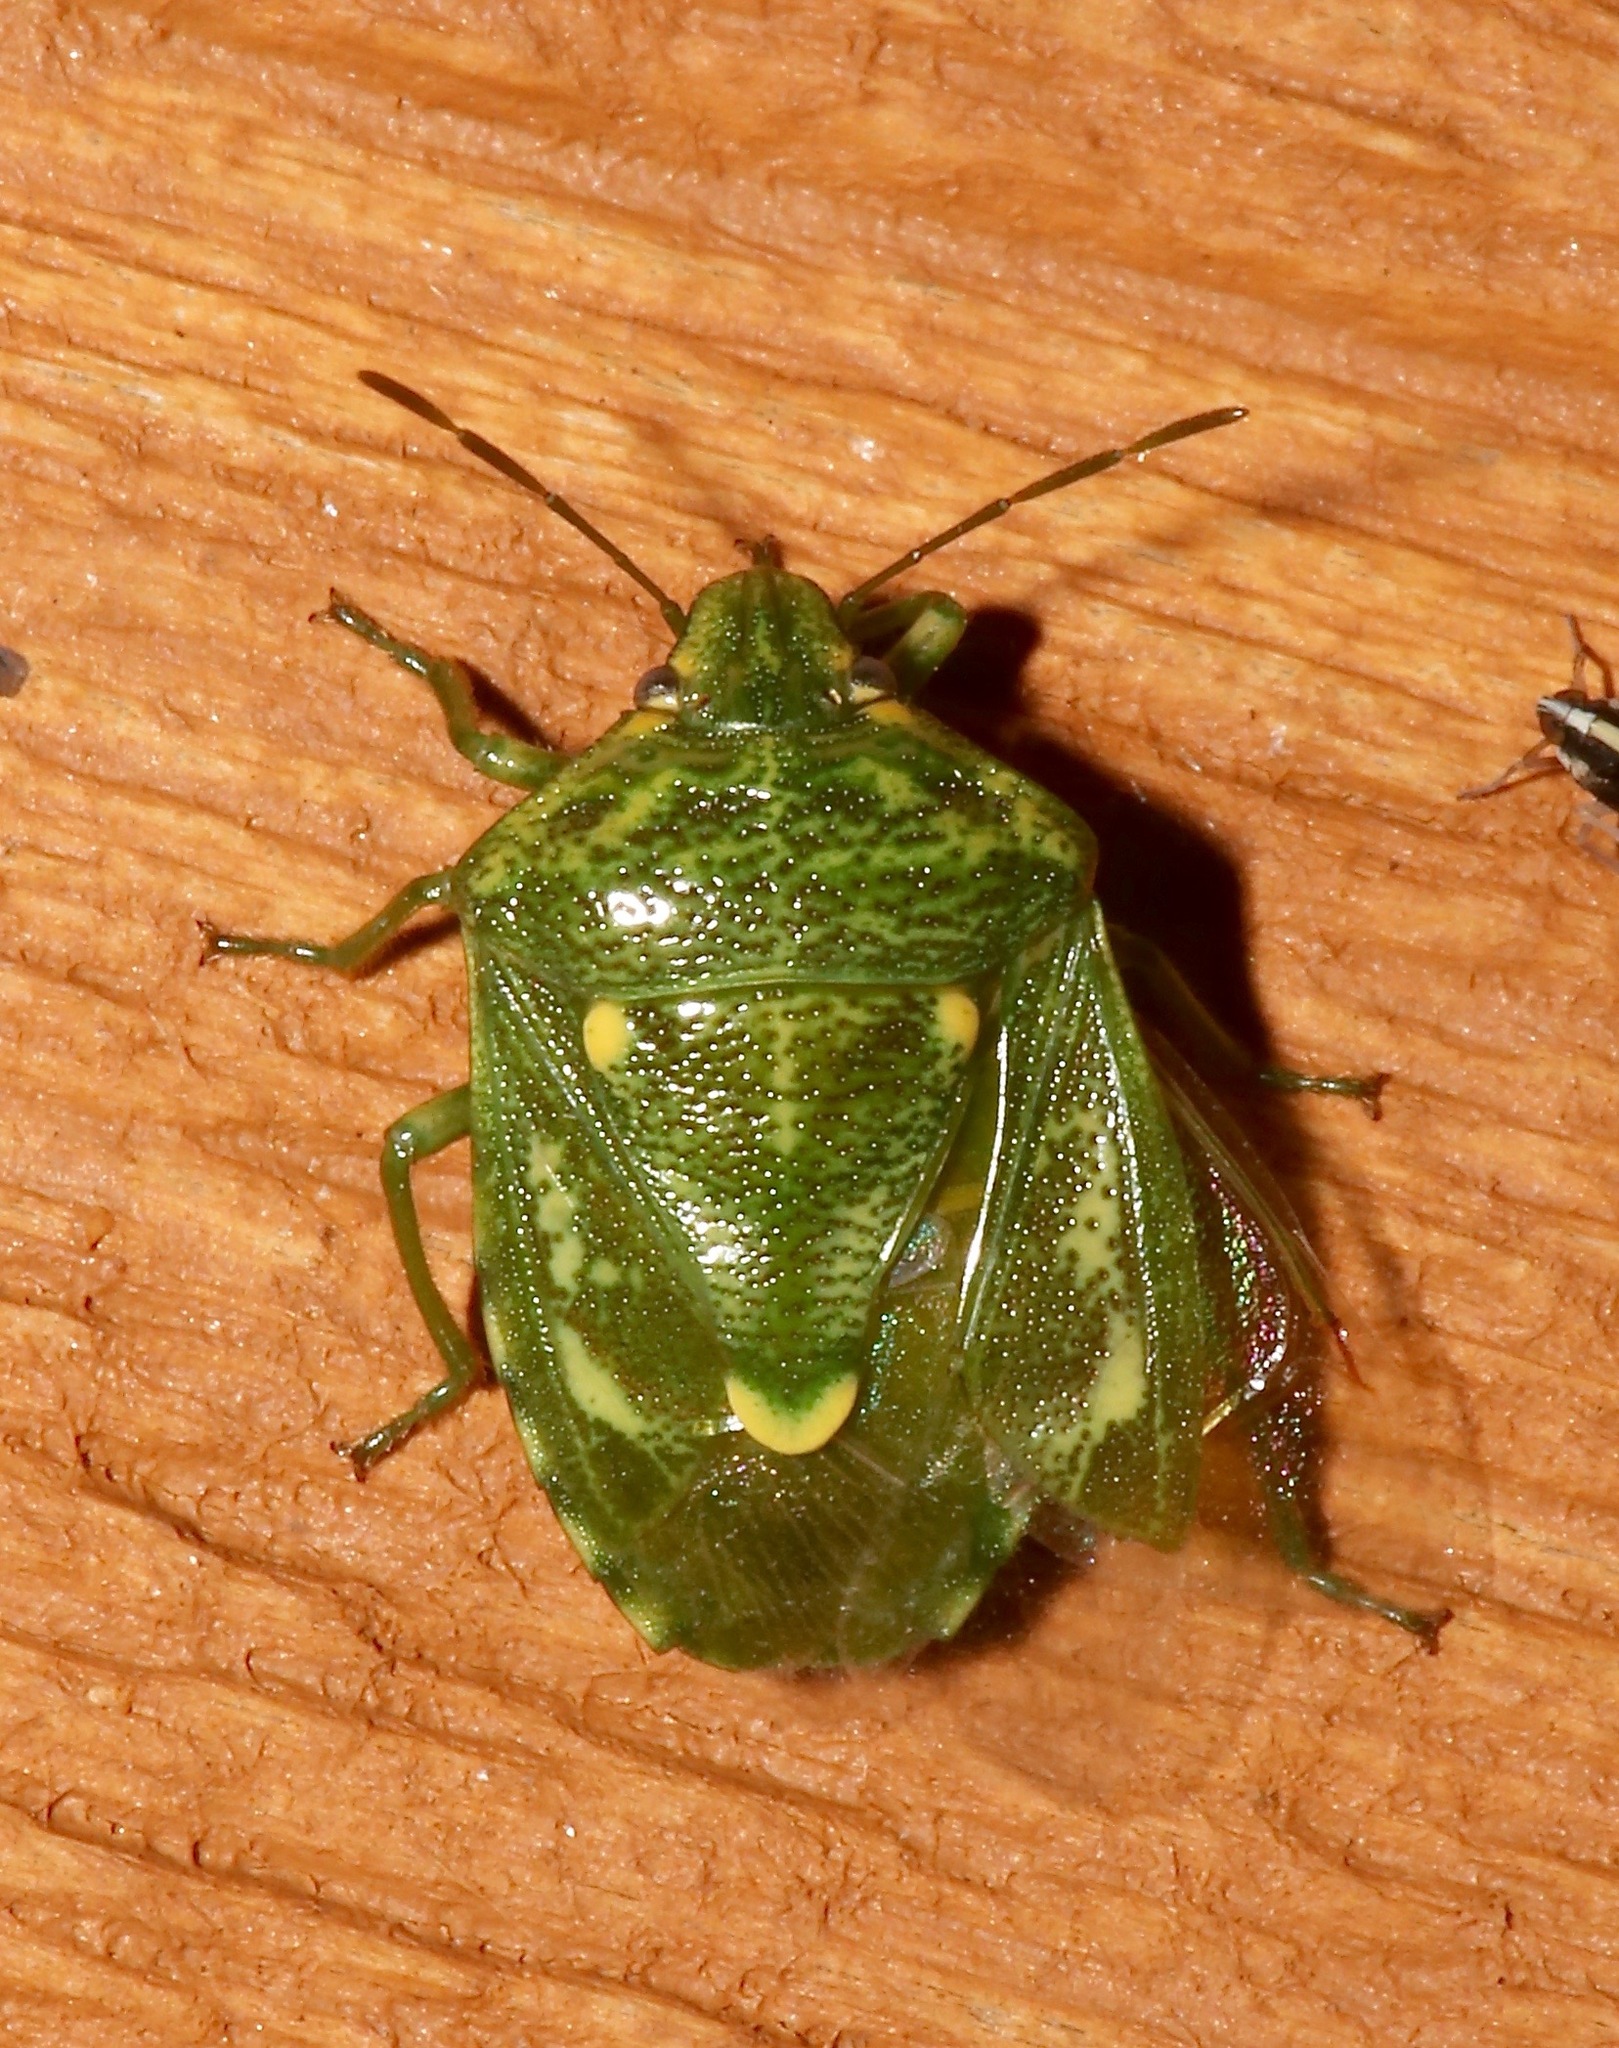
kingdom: Animalia
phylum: Arthropoda
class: Insecta
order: Hemiptera
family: Pentatomidae
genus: Banasa
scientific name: Banasa euchlora
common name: Cedar berry bug
